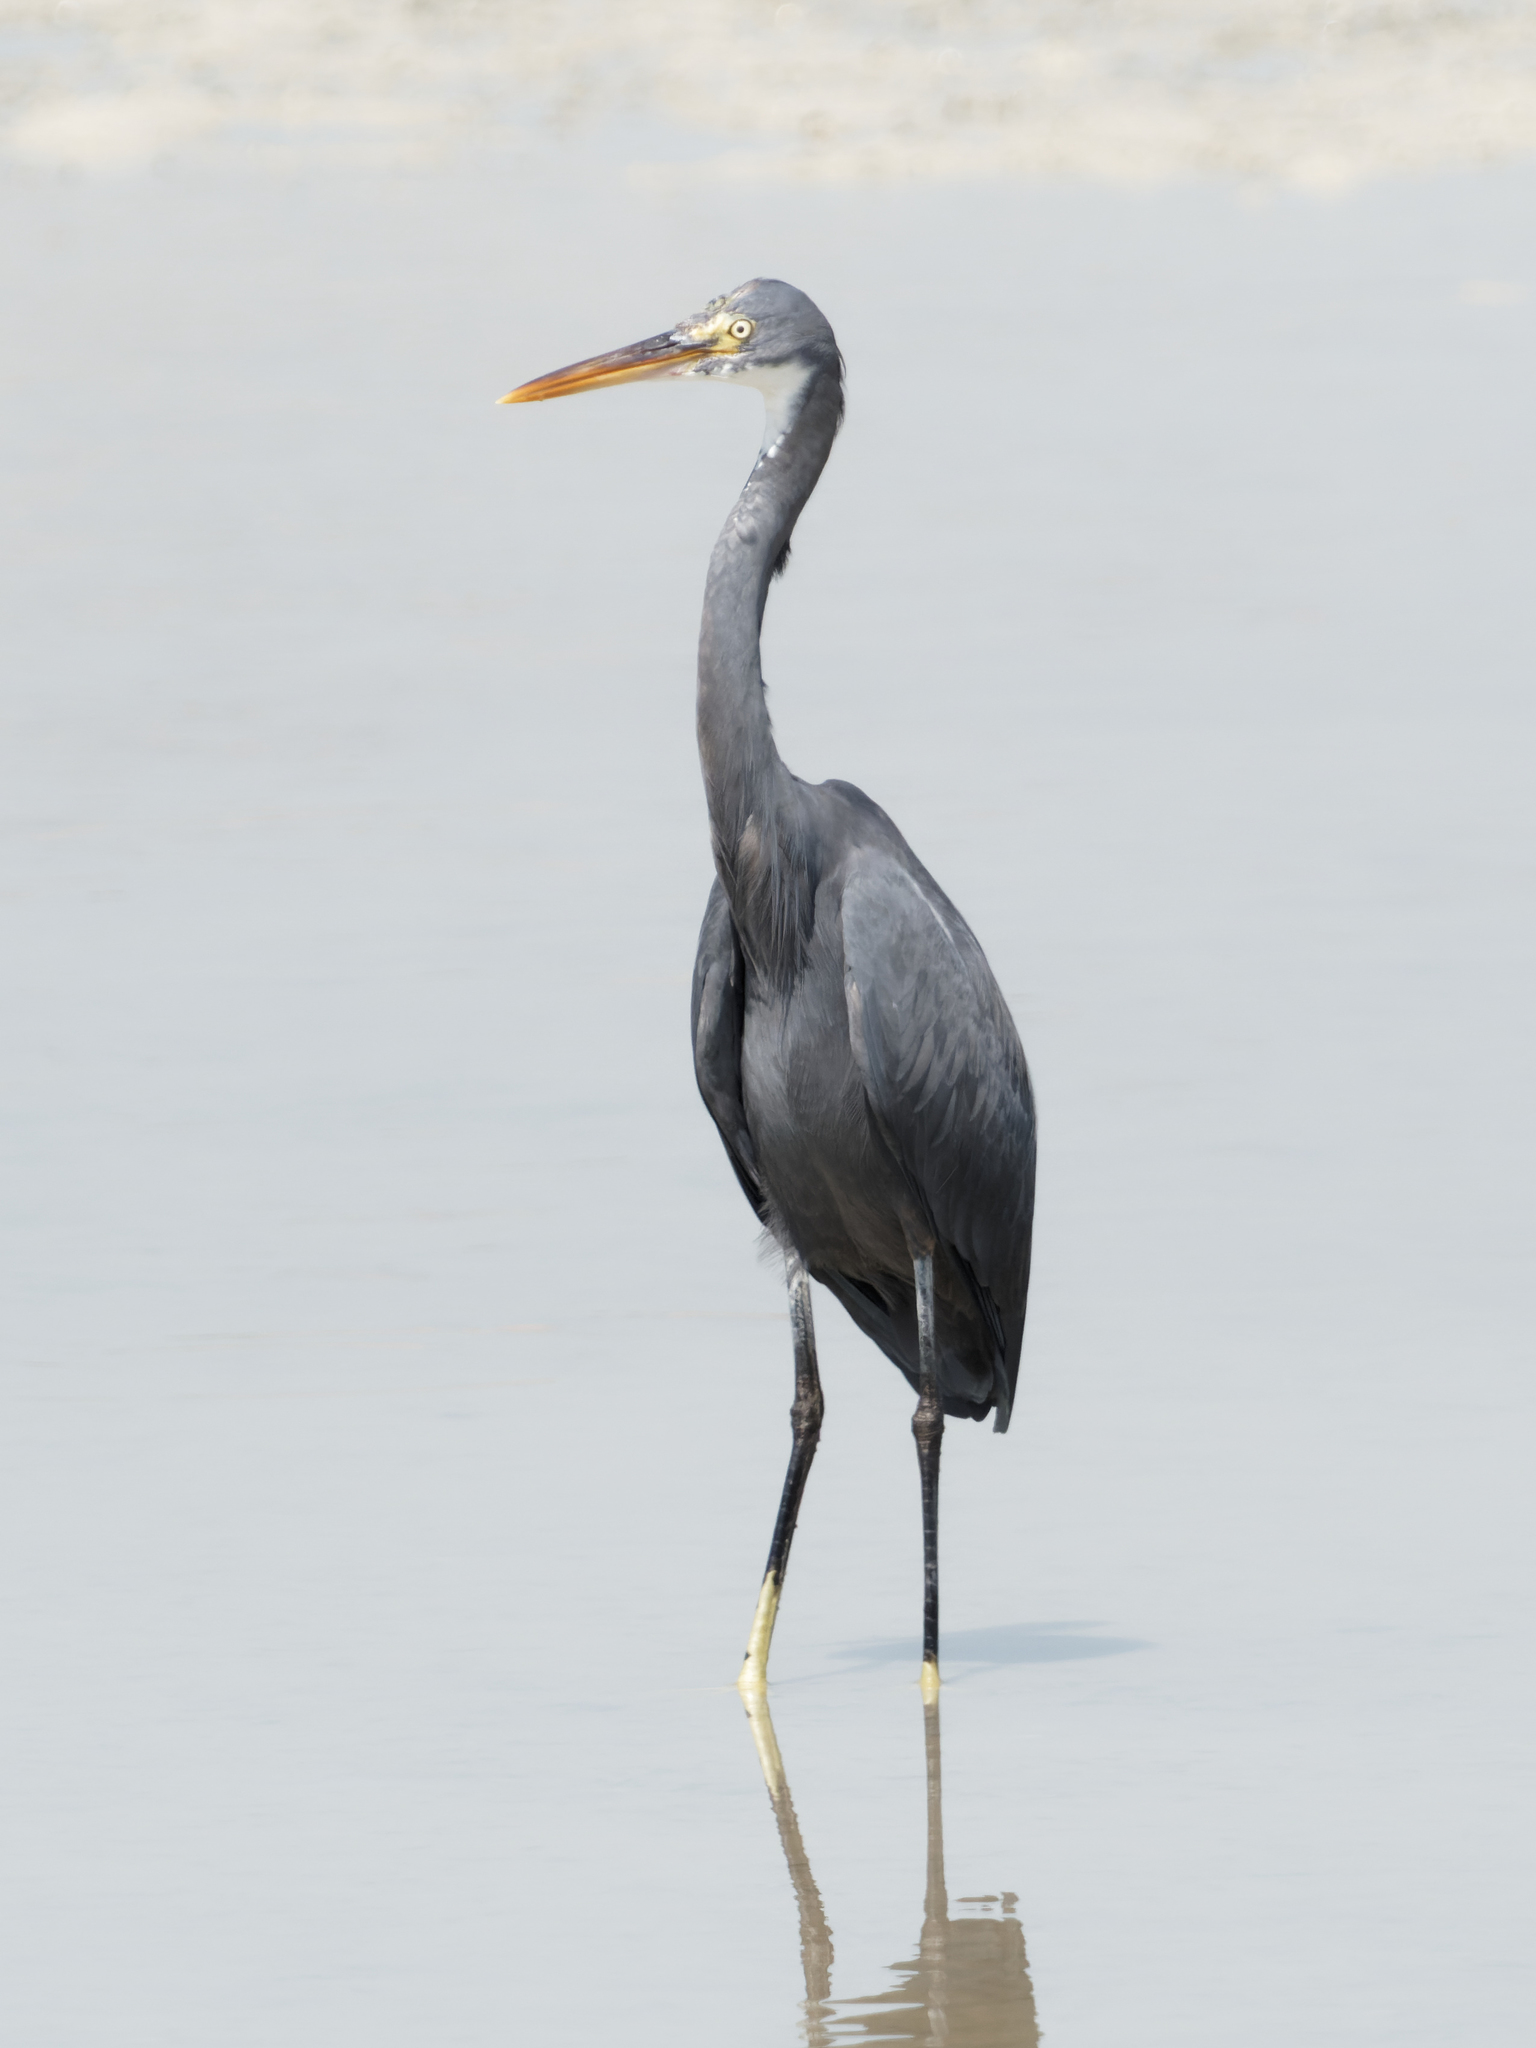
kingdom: Animalia
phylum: Chordata
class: Aves
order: Pelecaniformes
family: Ardeidae
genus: Egretta
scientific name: Egretta gularis
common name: Western reef-heron
